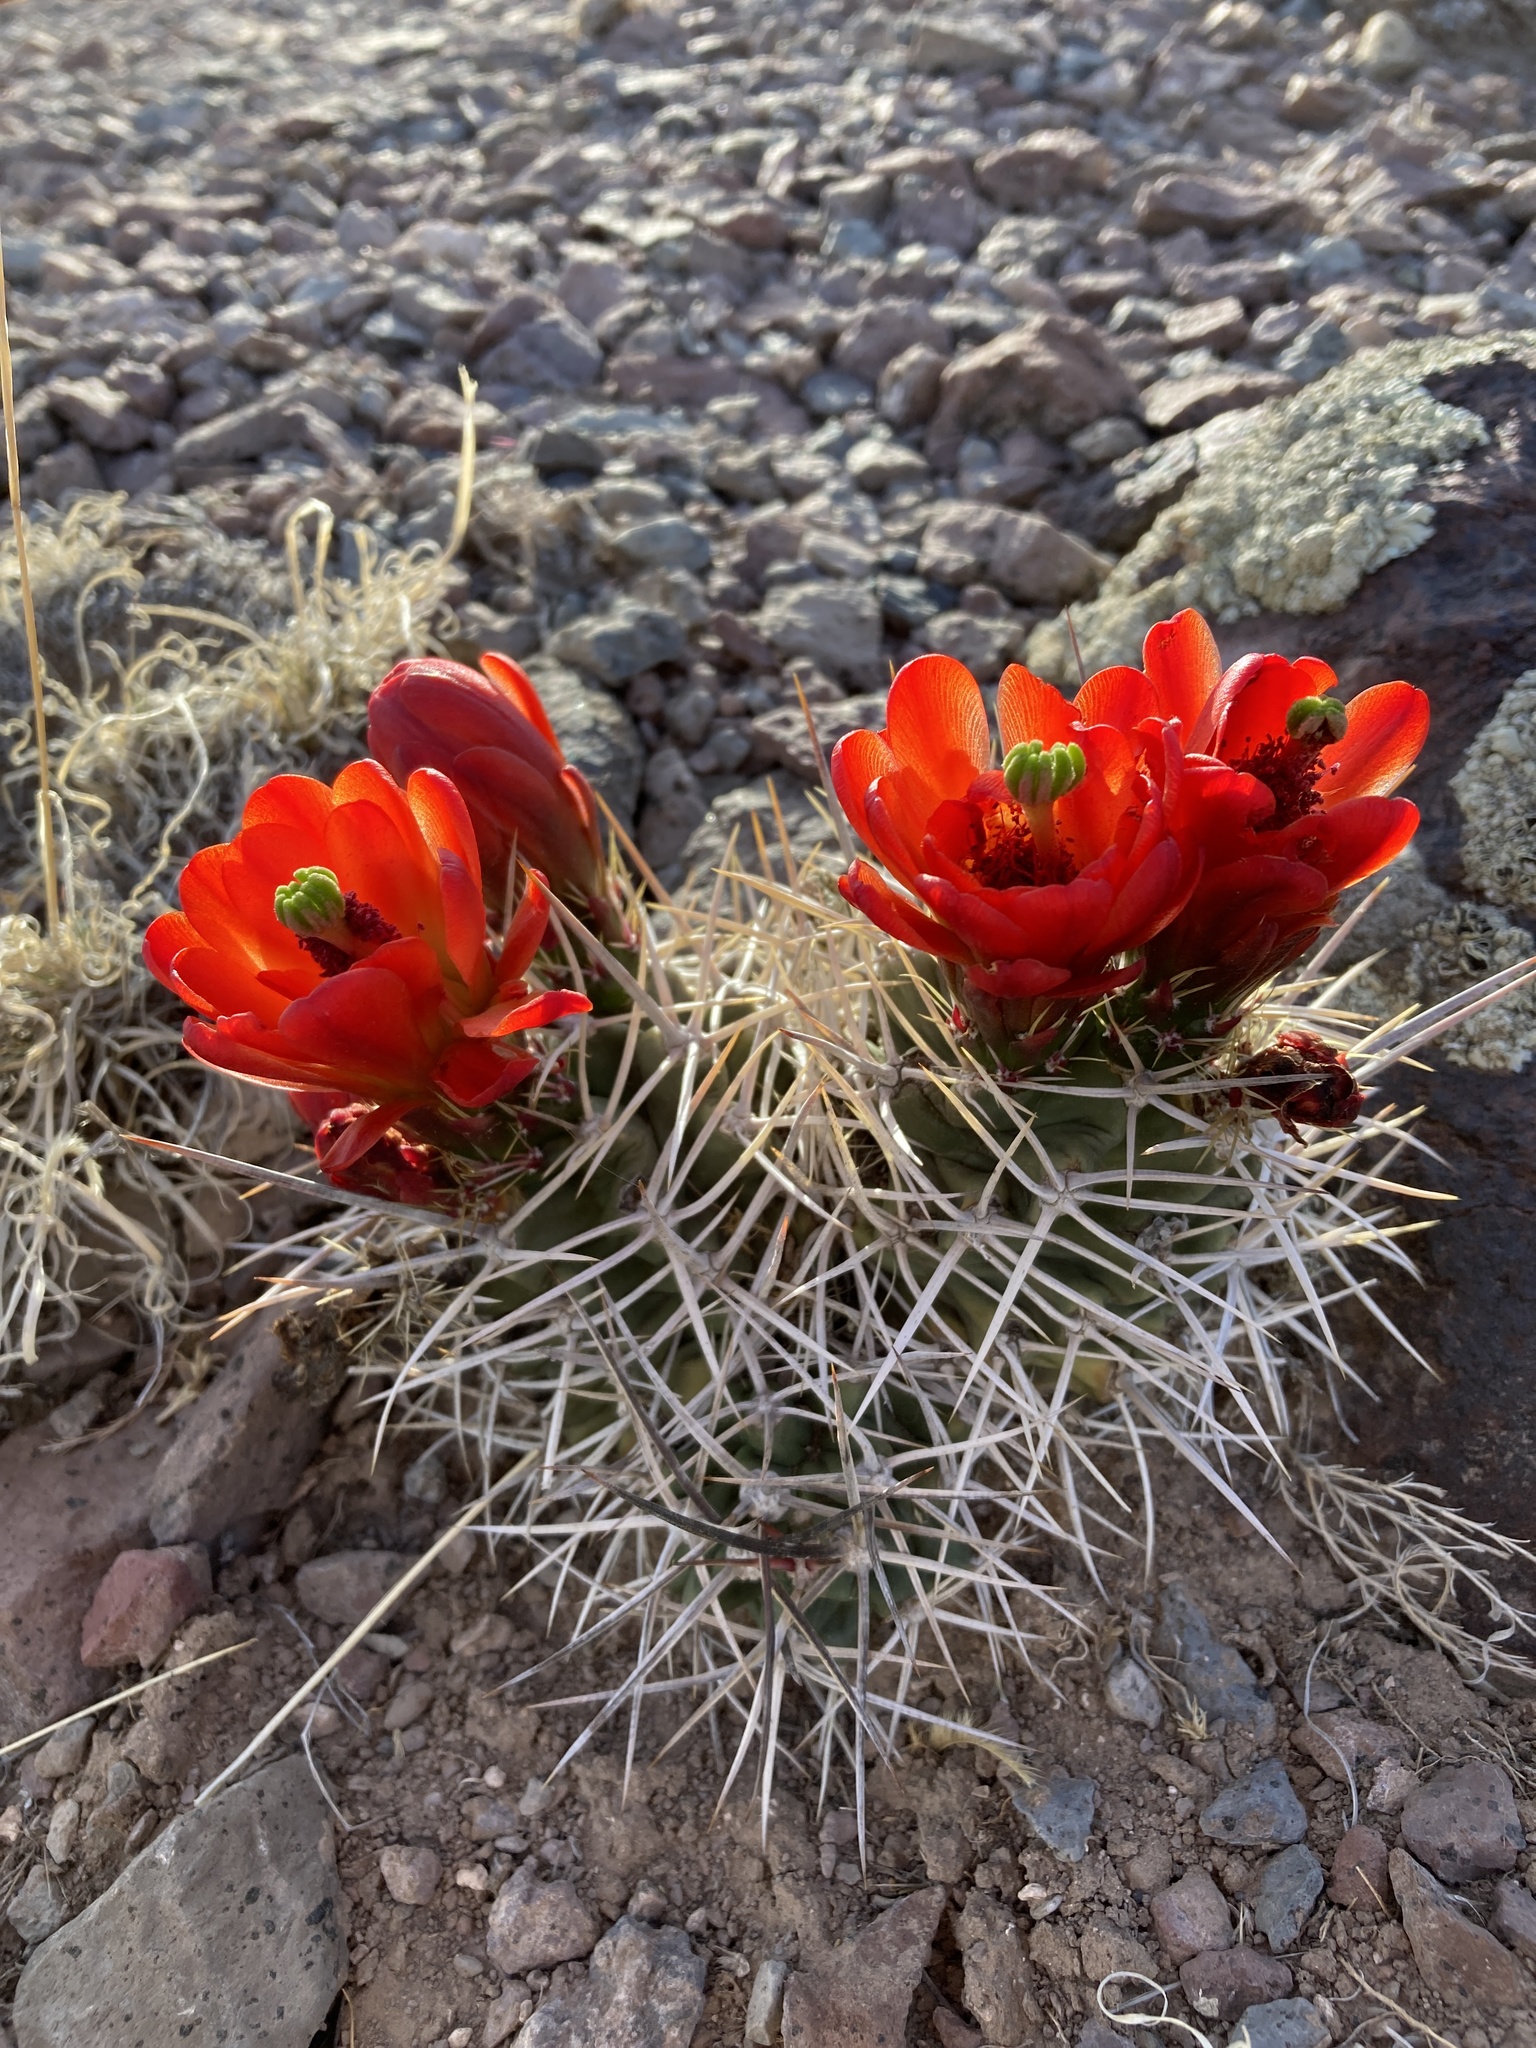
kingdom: Plantae
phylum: Tracheophyta
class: Magnoliopsida
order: Caryophyllales
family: Cactaceae
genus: Echinocereus
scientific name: Echinocereus triglochidiatus
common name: Claretcup hedgehog
